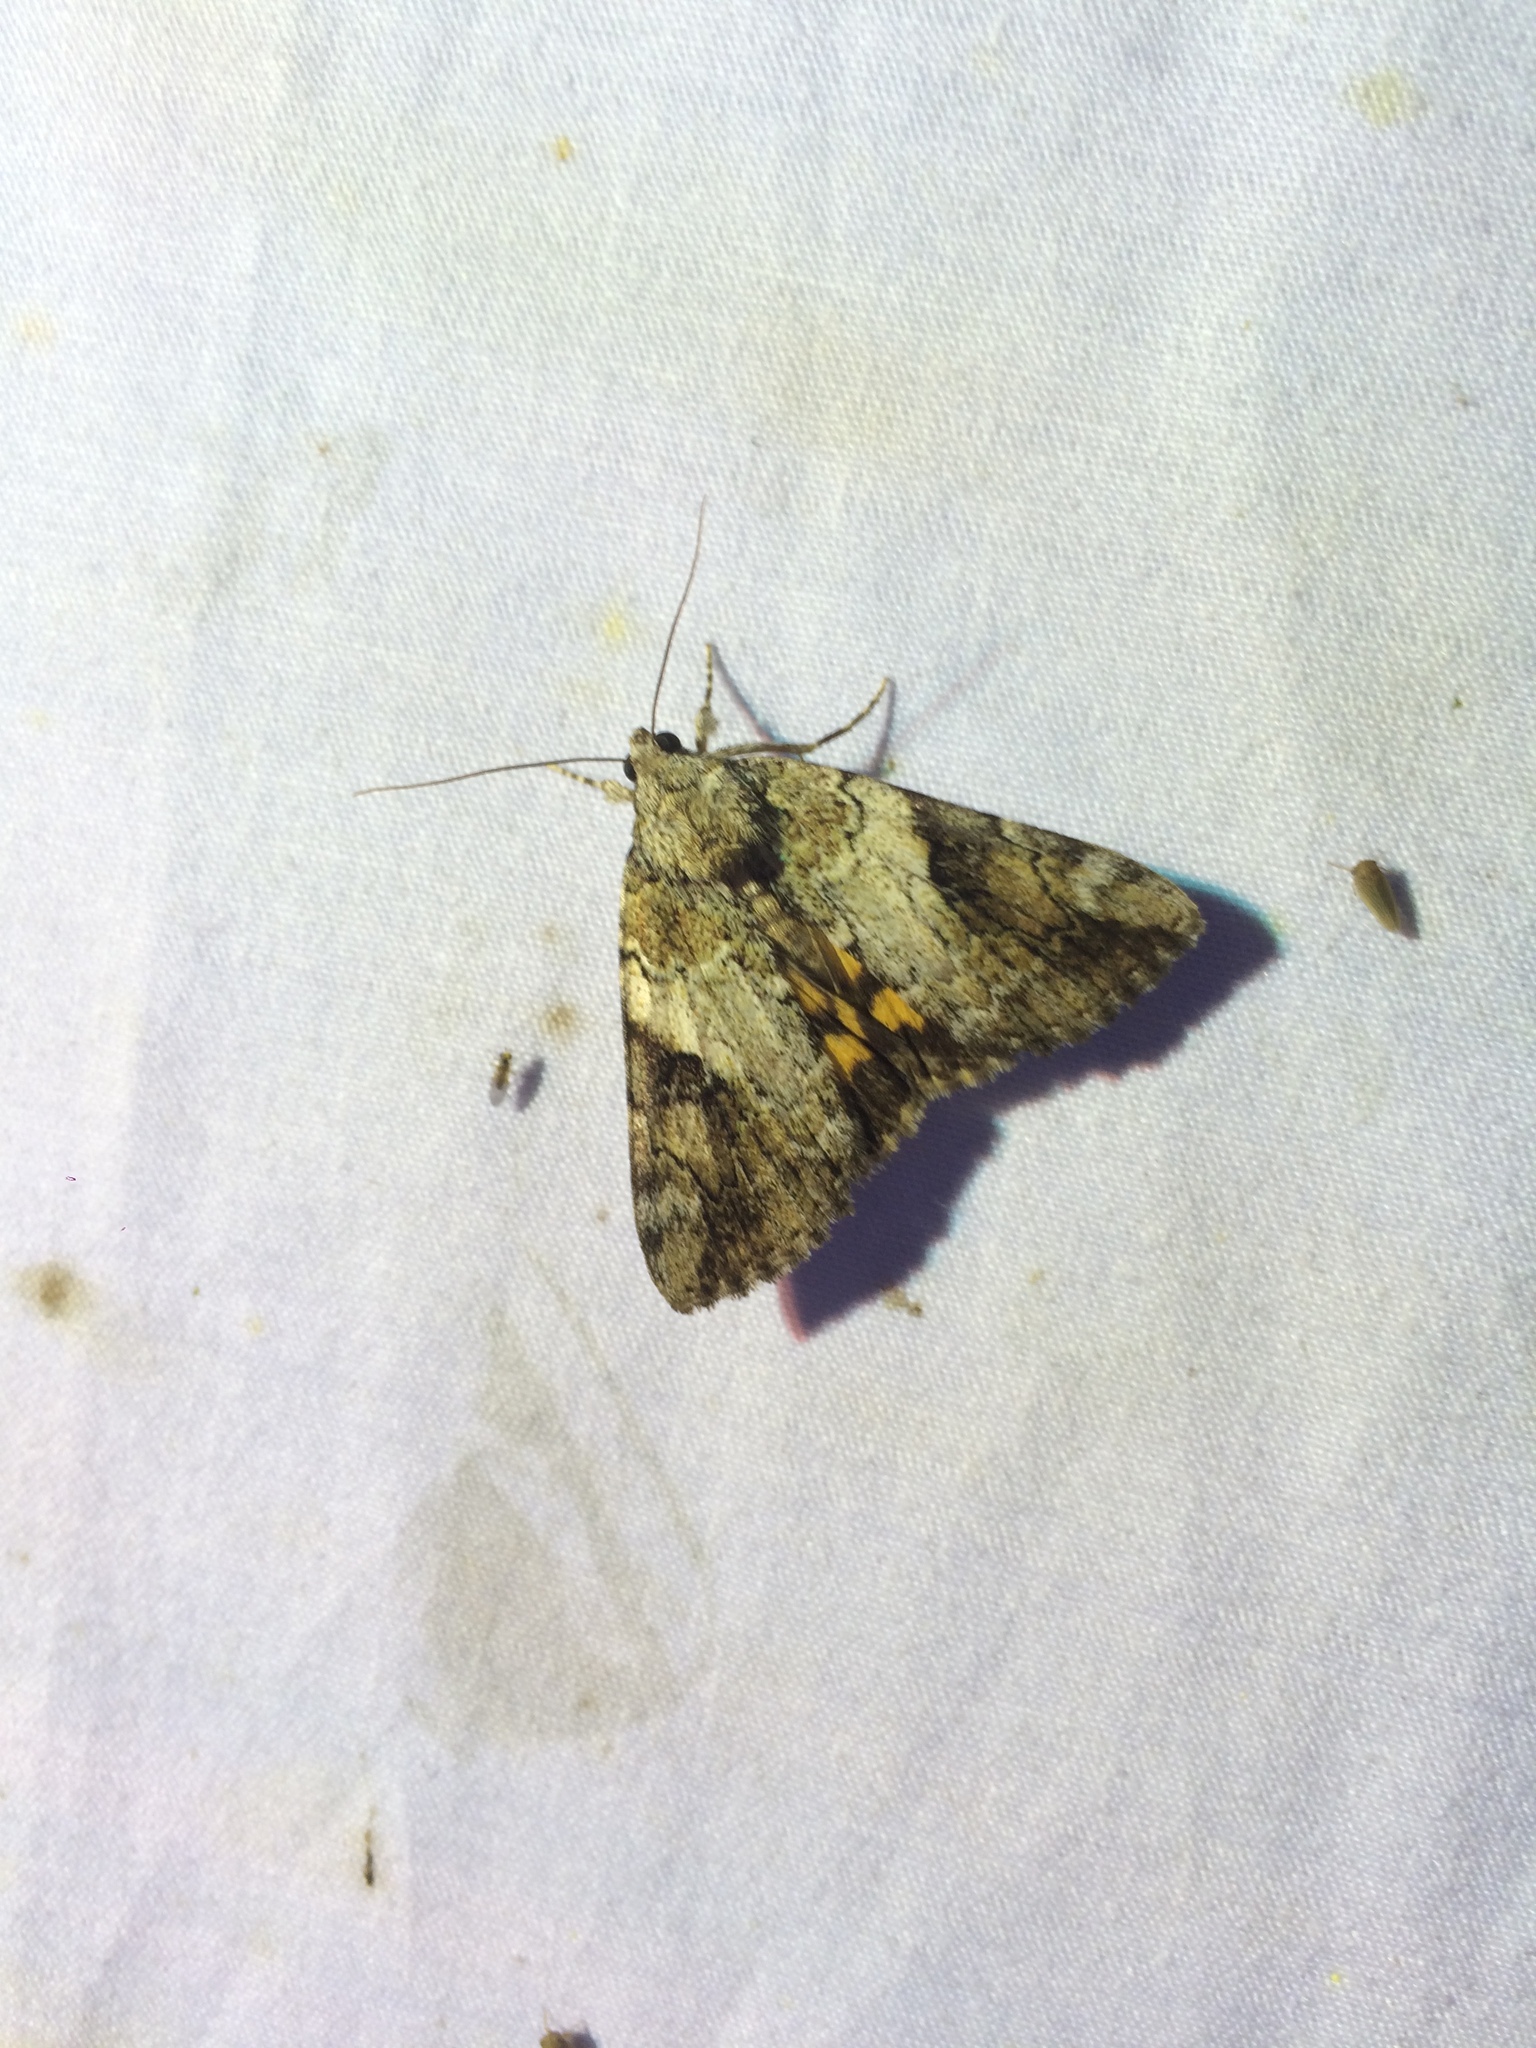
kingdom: Animalia
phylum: Arthropoda
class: Insecta
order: Lepidoptera
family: Erebidae
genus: Catocala
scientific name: Catocala micronympha
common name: Little nymph underwing
